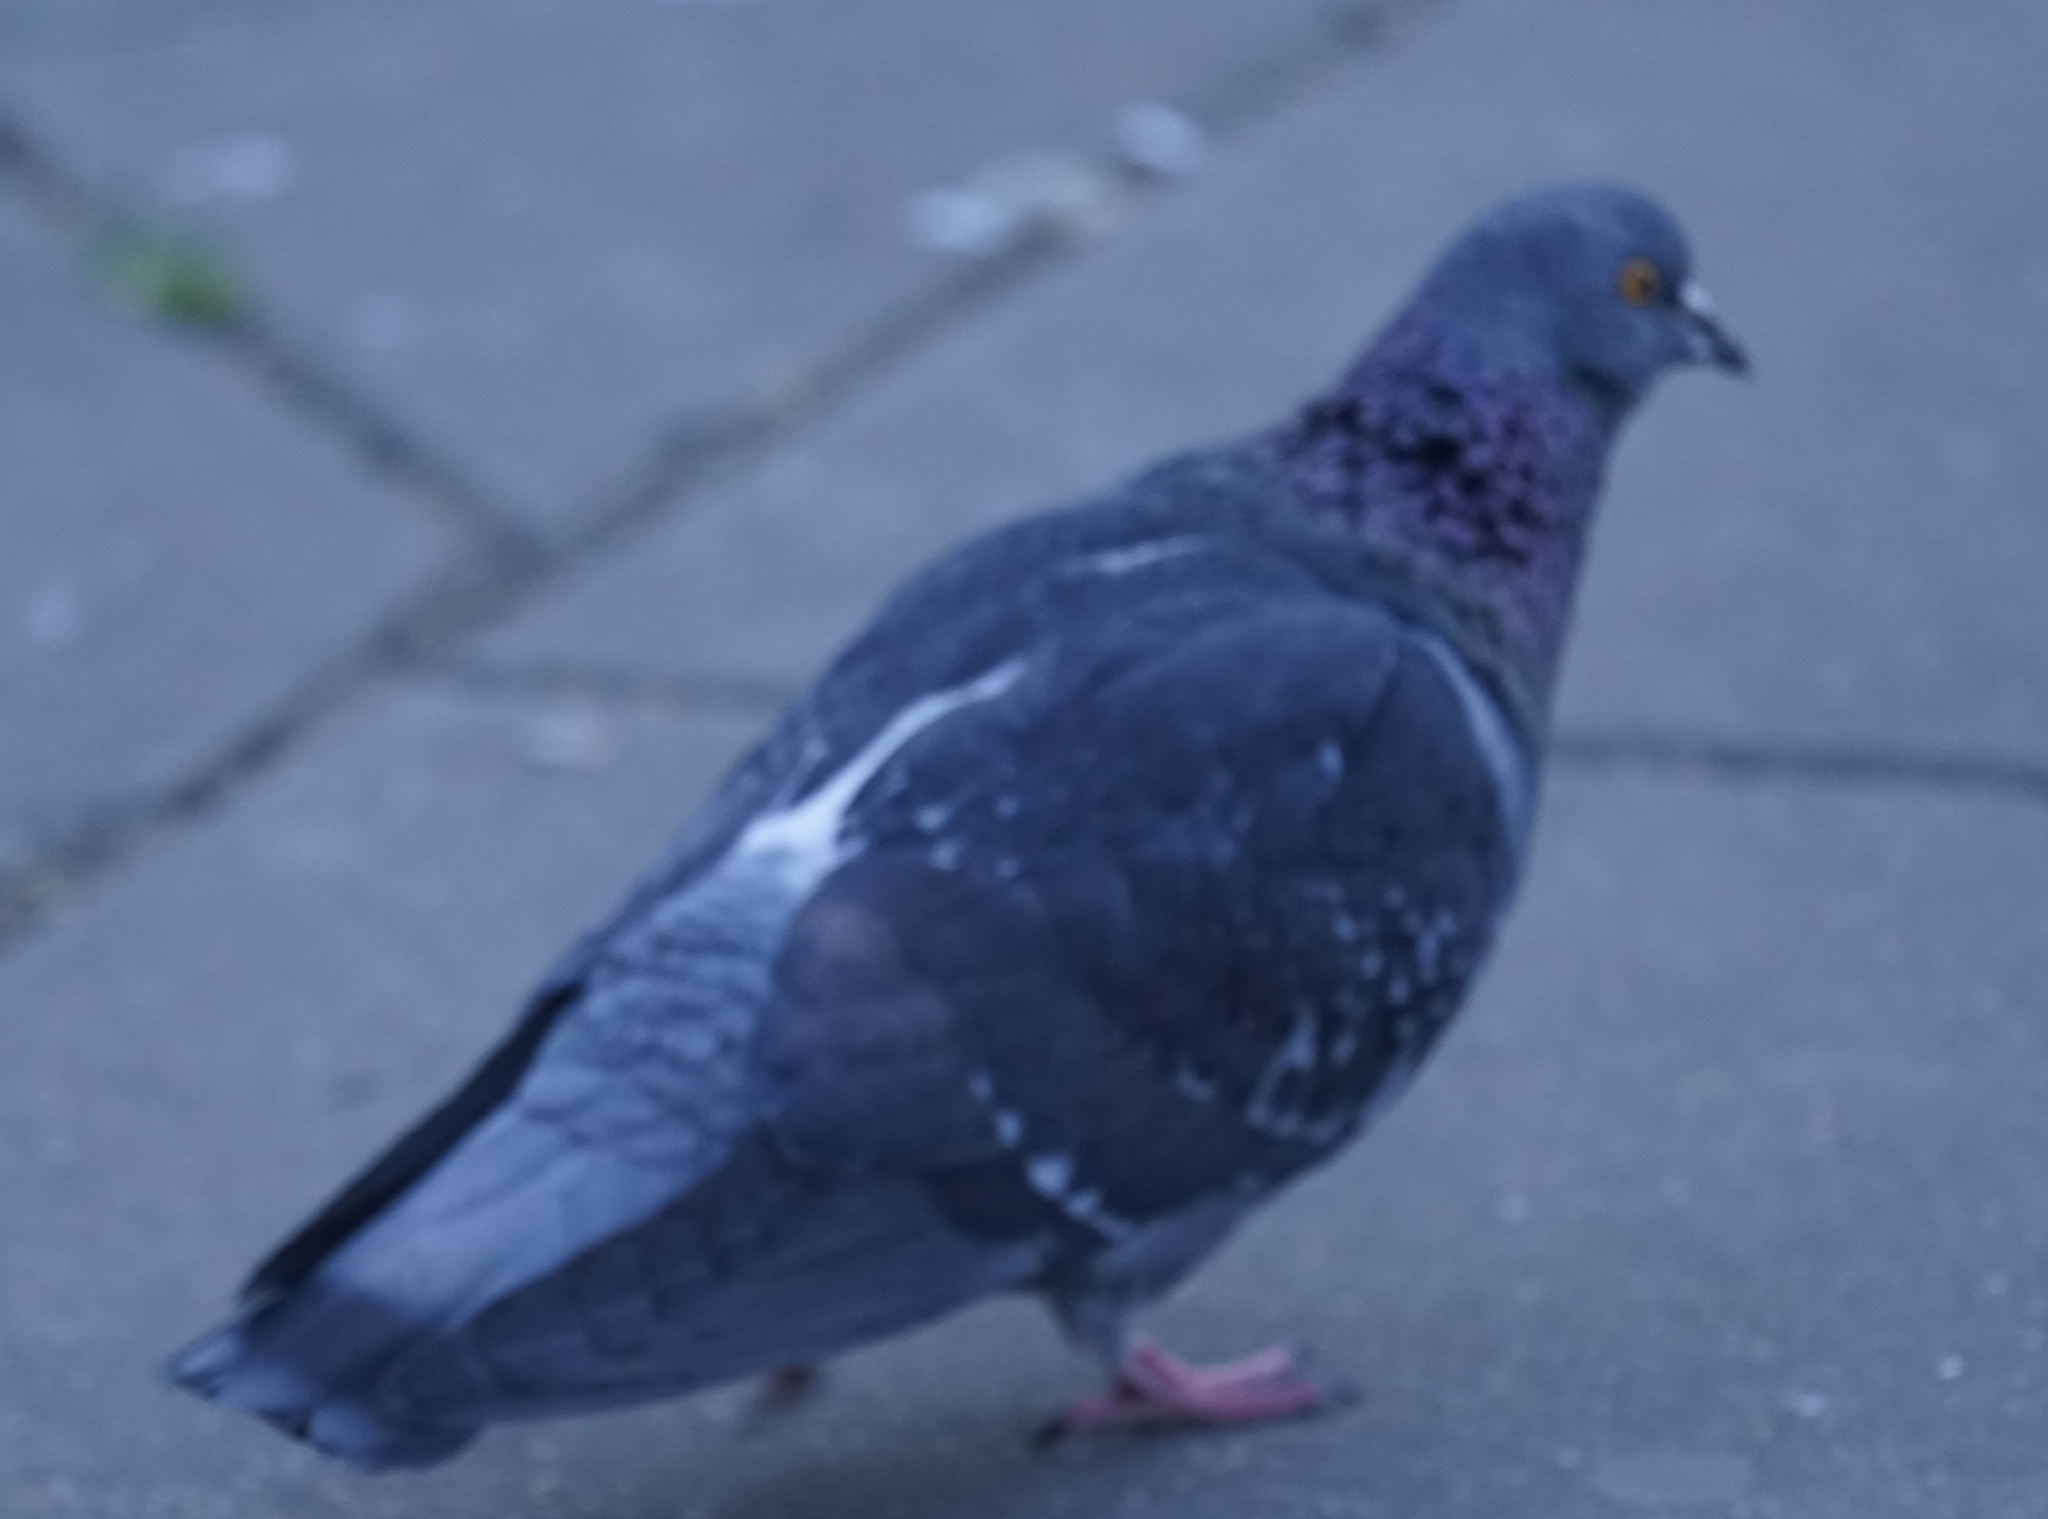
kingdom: Animalia
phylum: Chordata
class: Aves
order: Columbiformes
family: Columbidae
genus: Columba
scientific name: Columba livia
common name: Rock pigeon
